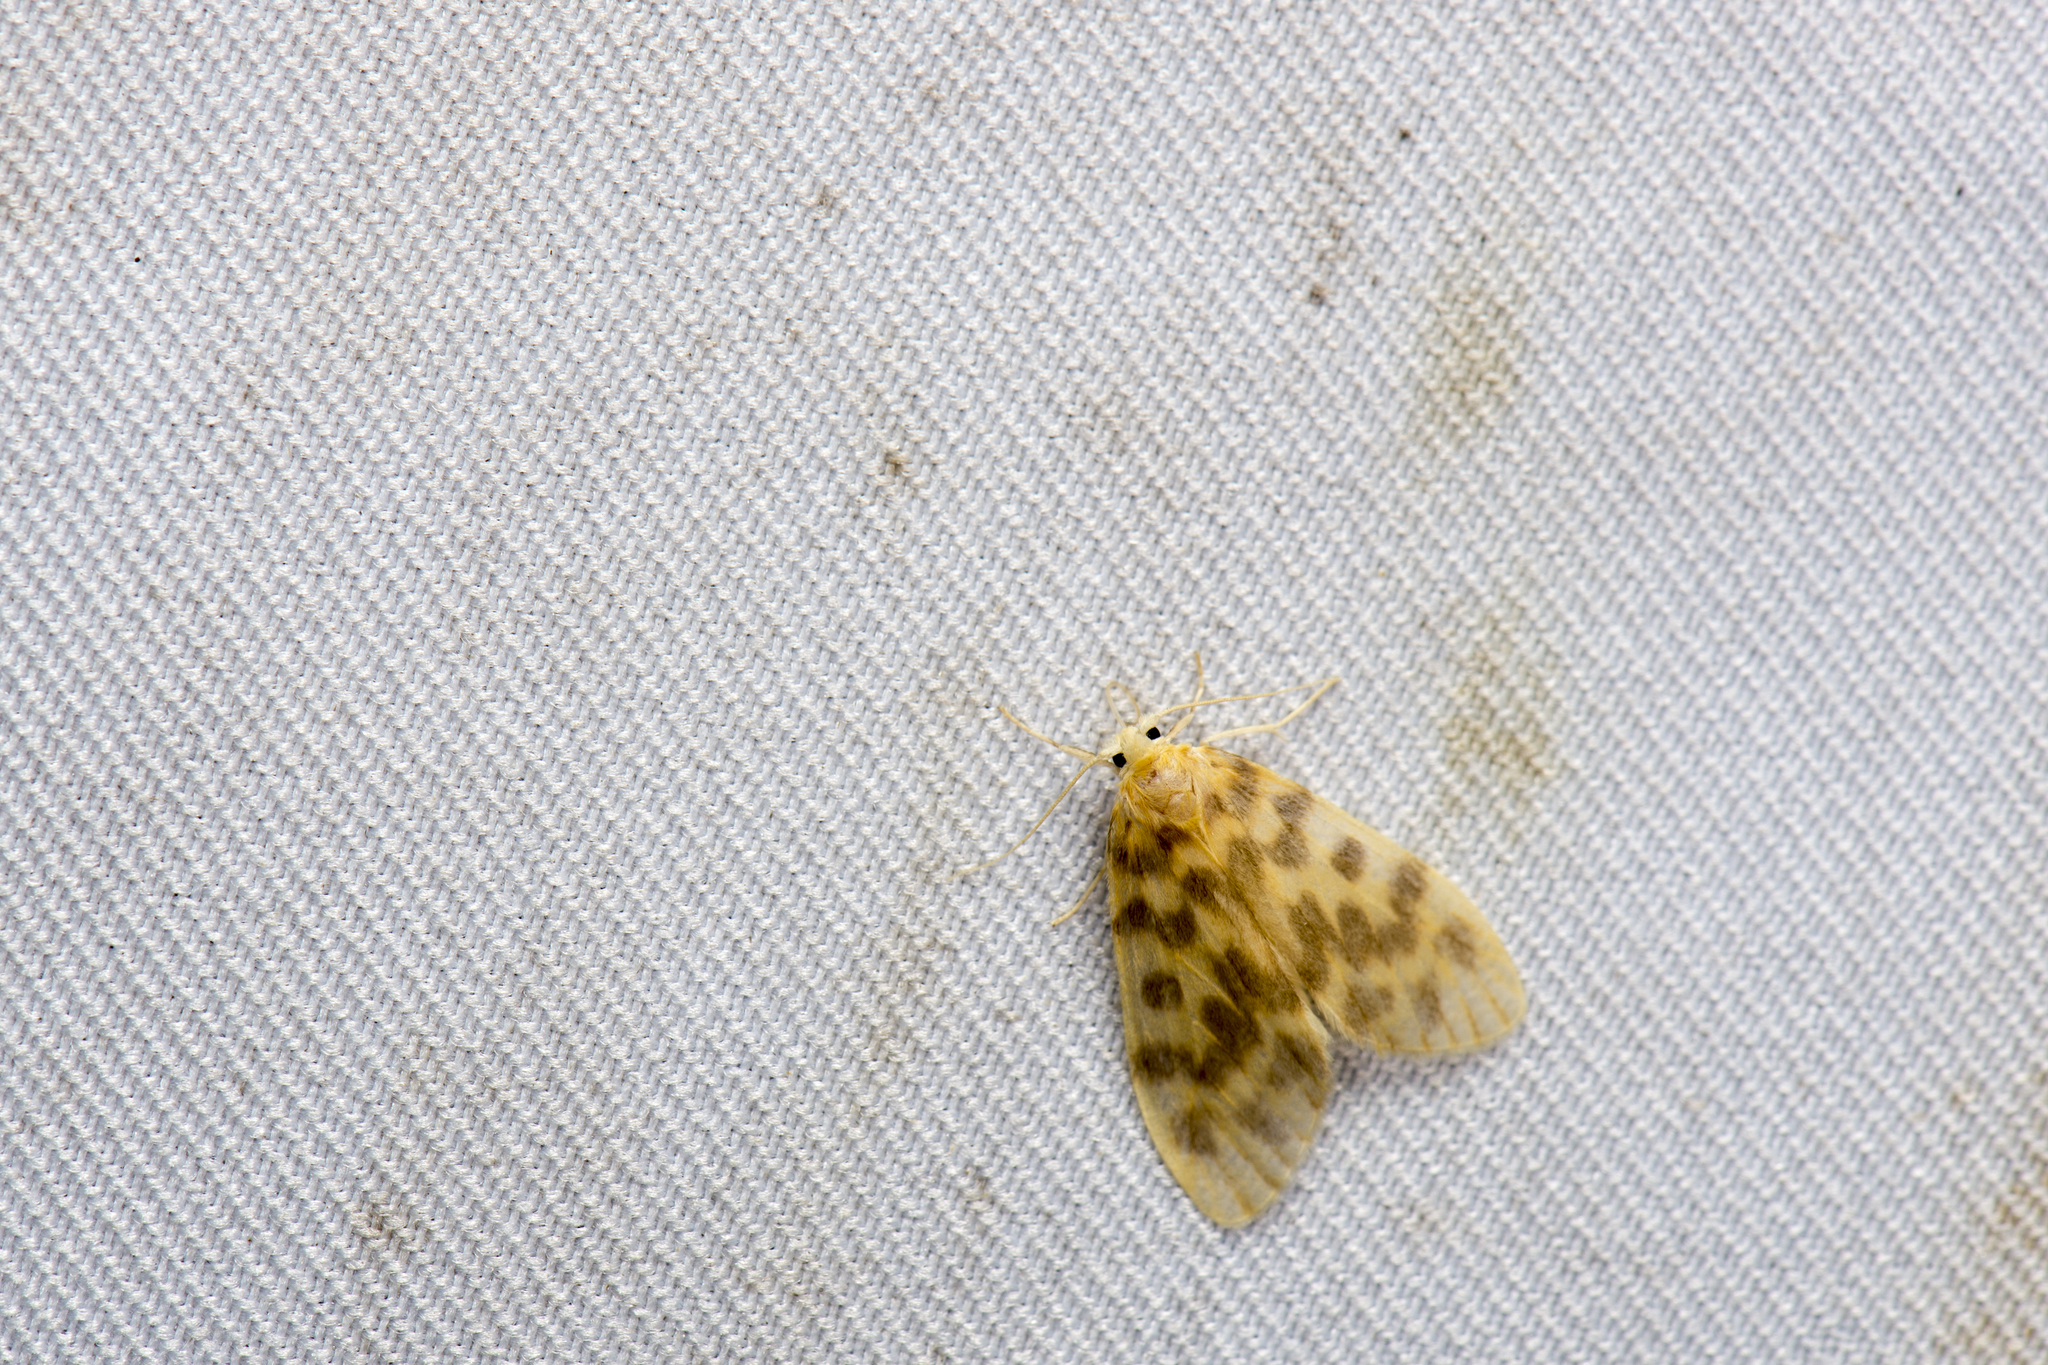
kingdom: Animalia
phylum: Arthropoda
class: Insecta
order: Lepidoptera
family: Erebidae
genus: Hemipsilia
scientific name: Hemipsilia coavestis
